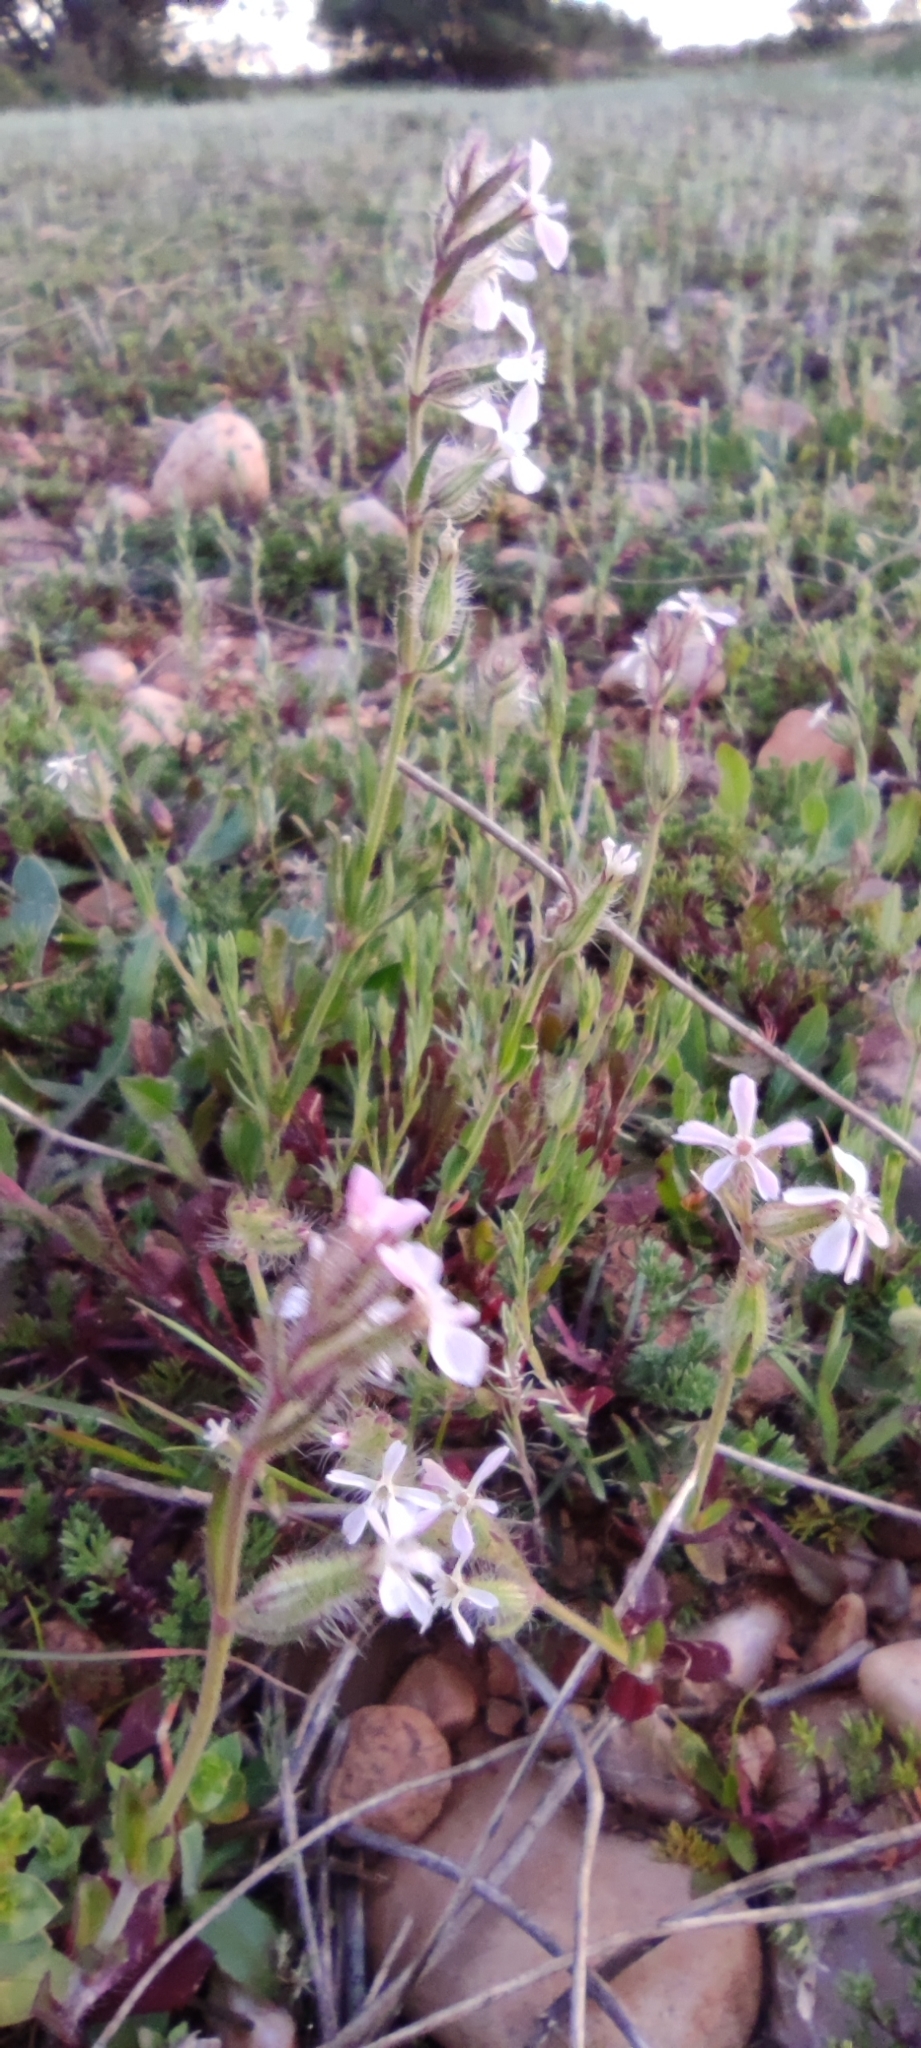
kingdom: Plantae
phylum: Tracheophyta
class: Magnoliopsida
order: Caryophyllales
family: Caryophyllaceae
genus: Silene
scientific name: Silene gallica
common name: Small-flowered catchfly
